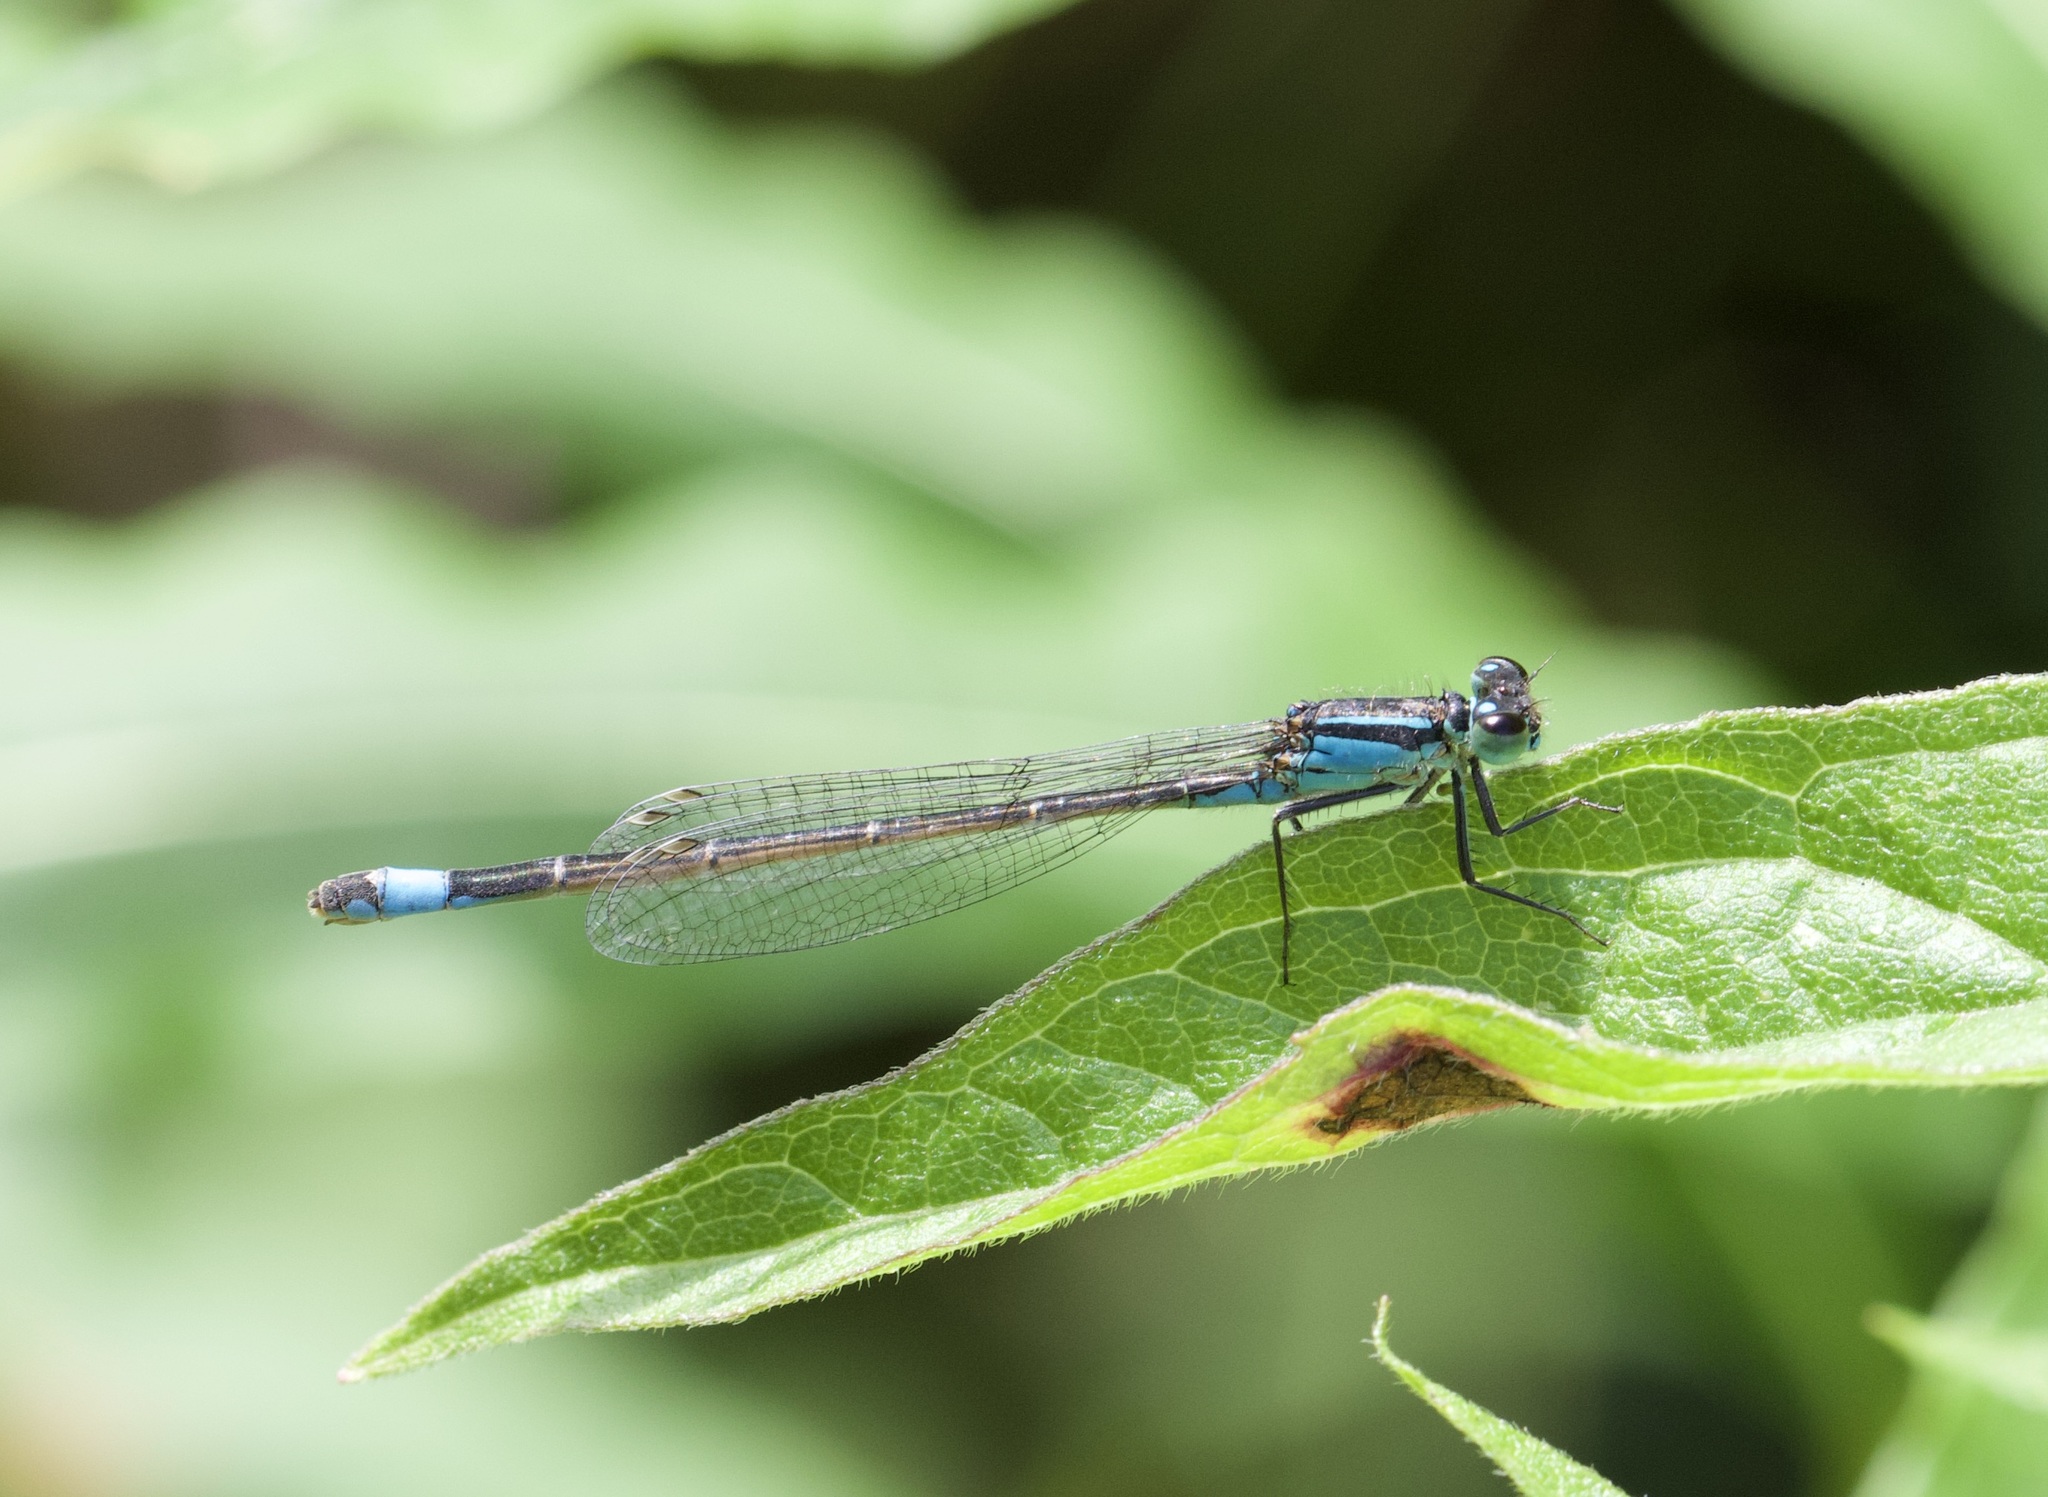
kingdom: Animalia
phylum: Arthropoda
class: Insecta
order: Odonata
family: Coenagrionidae
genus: Ischnura
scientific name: Ischnura elegans
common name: Blue-tailed damselfly
